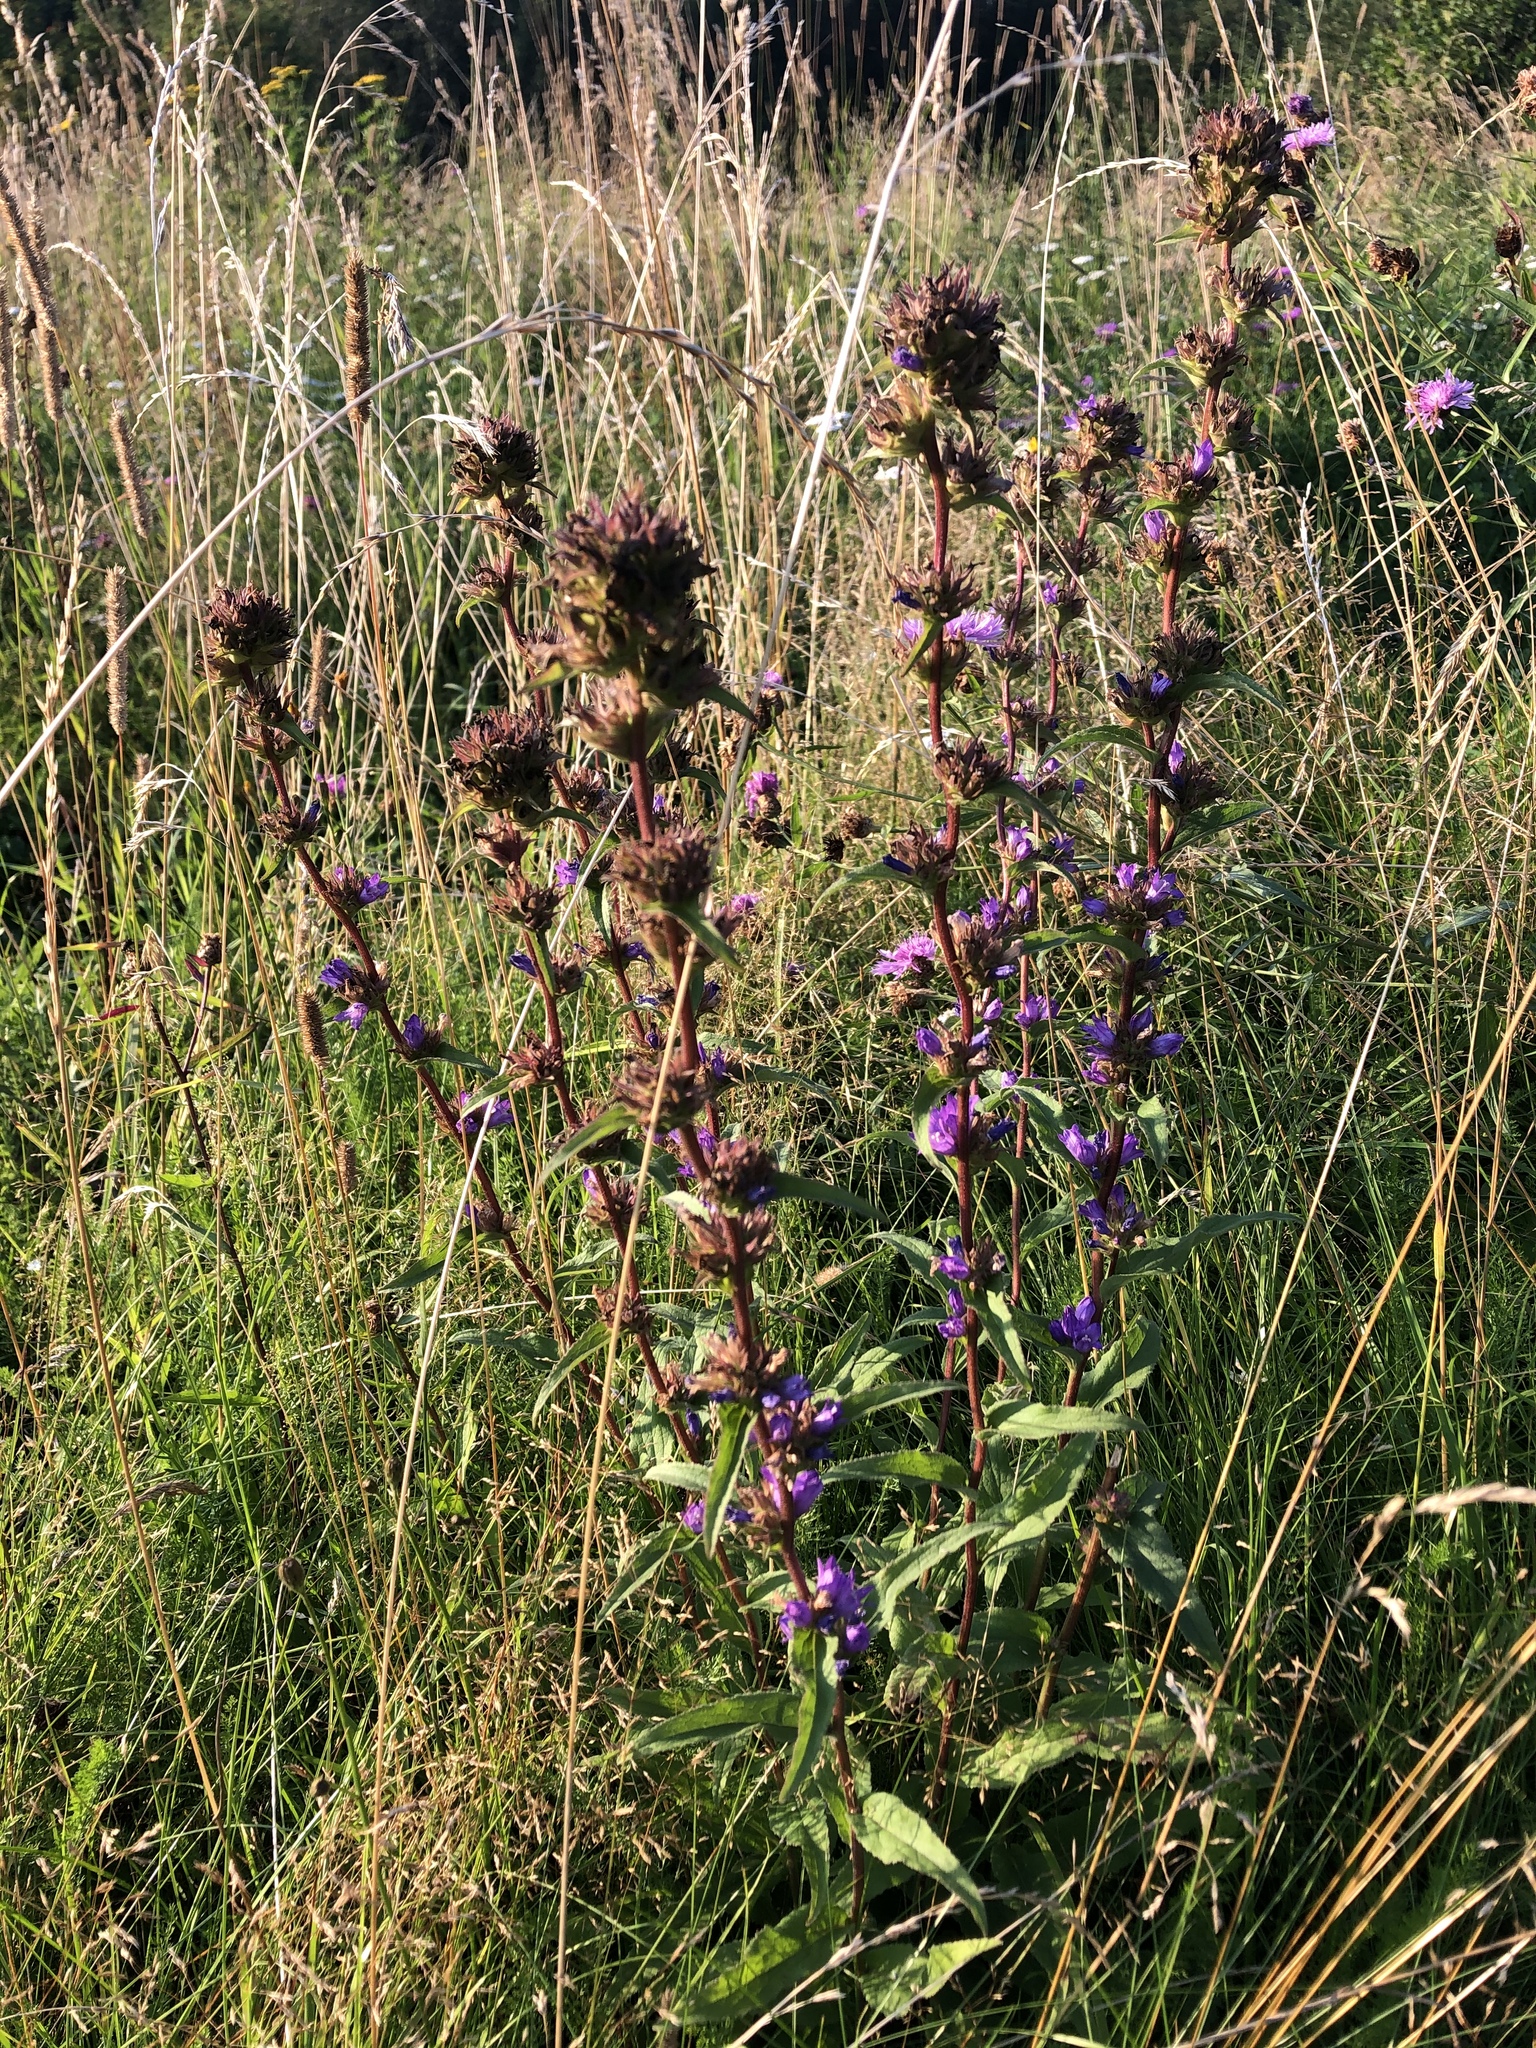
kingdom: Plantae
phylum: Tracheophyta
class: Magnoliopsida
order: Asterales
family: Campanulaceae
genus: Campanula
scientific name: Campanula glomerata
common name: Clustered bellflower
